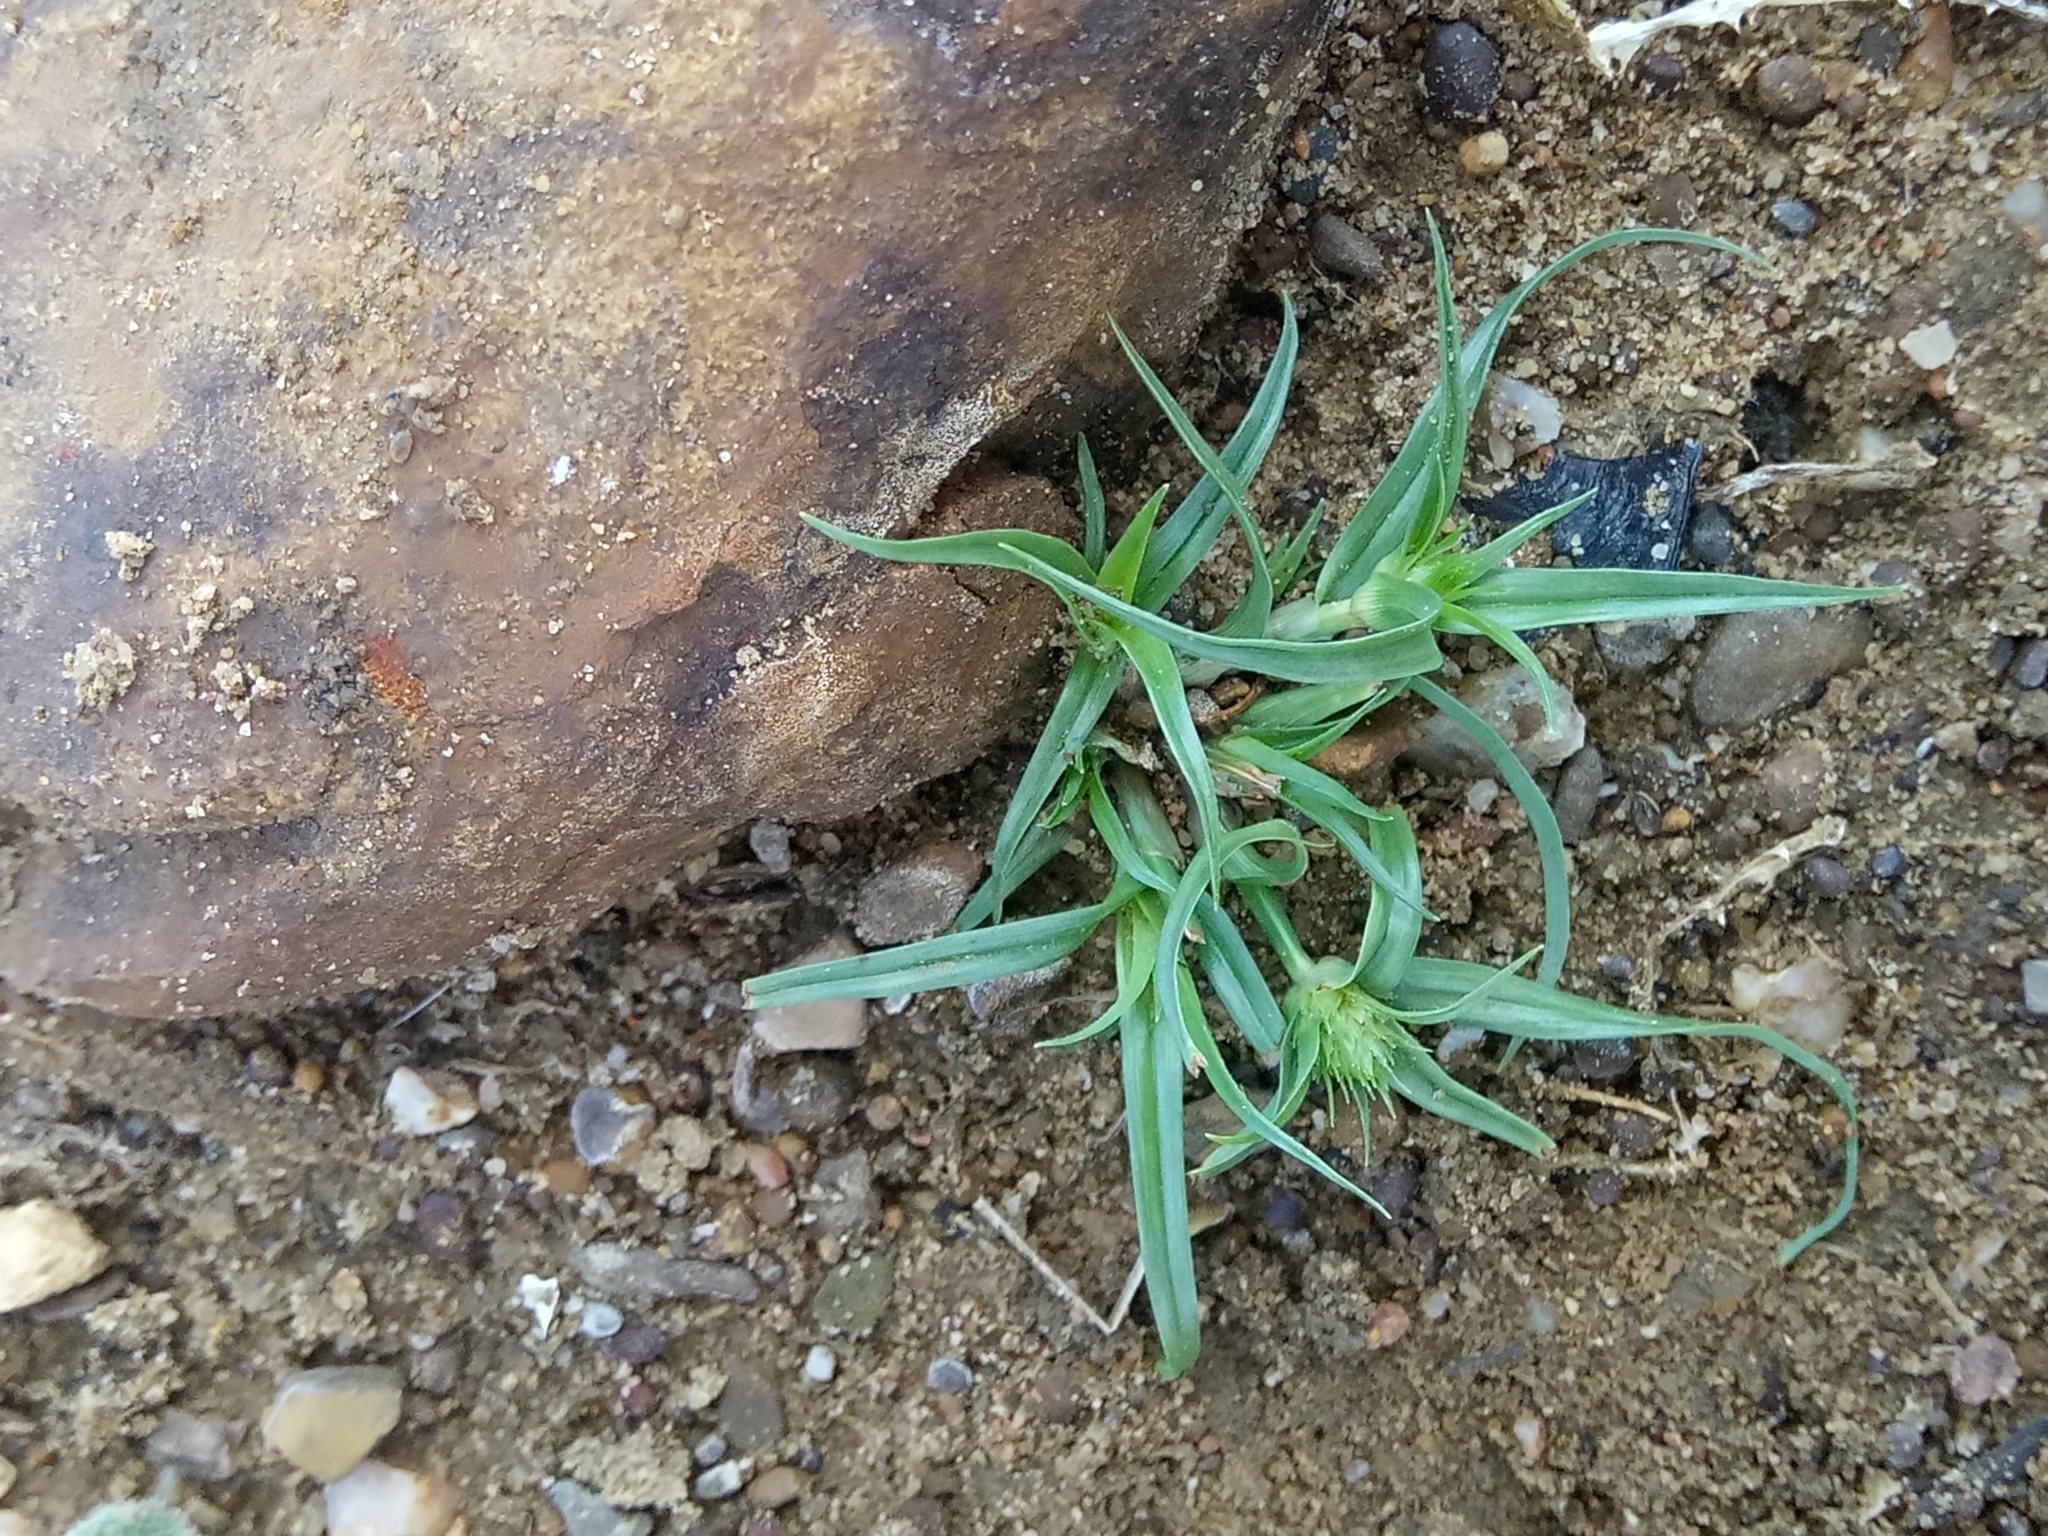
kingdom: Plantae
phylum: Tracheophyta
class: Liliopsida
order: Poales
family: Cyperaceae
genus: Cyperus
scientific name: Cyperus michelianus
